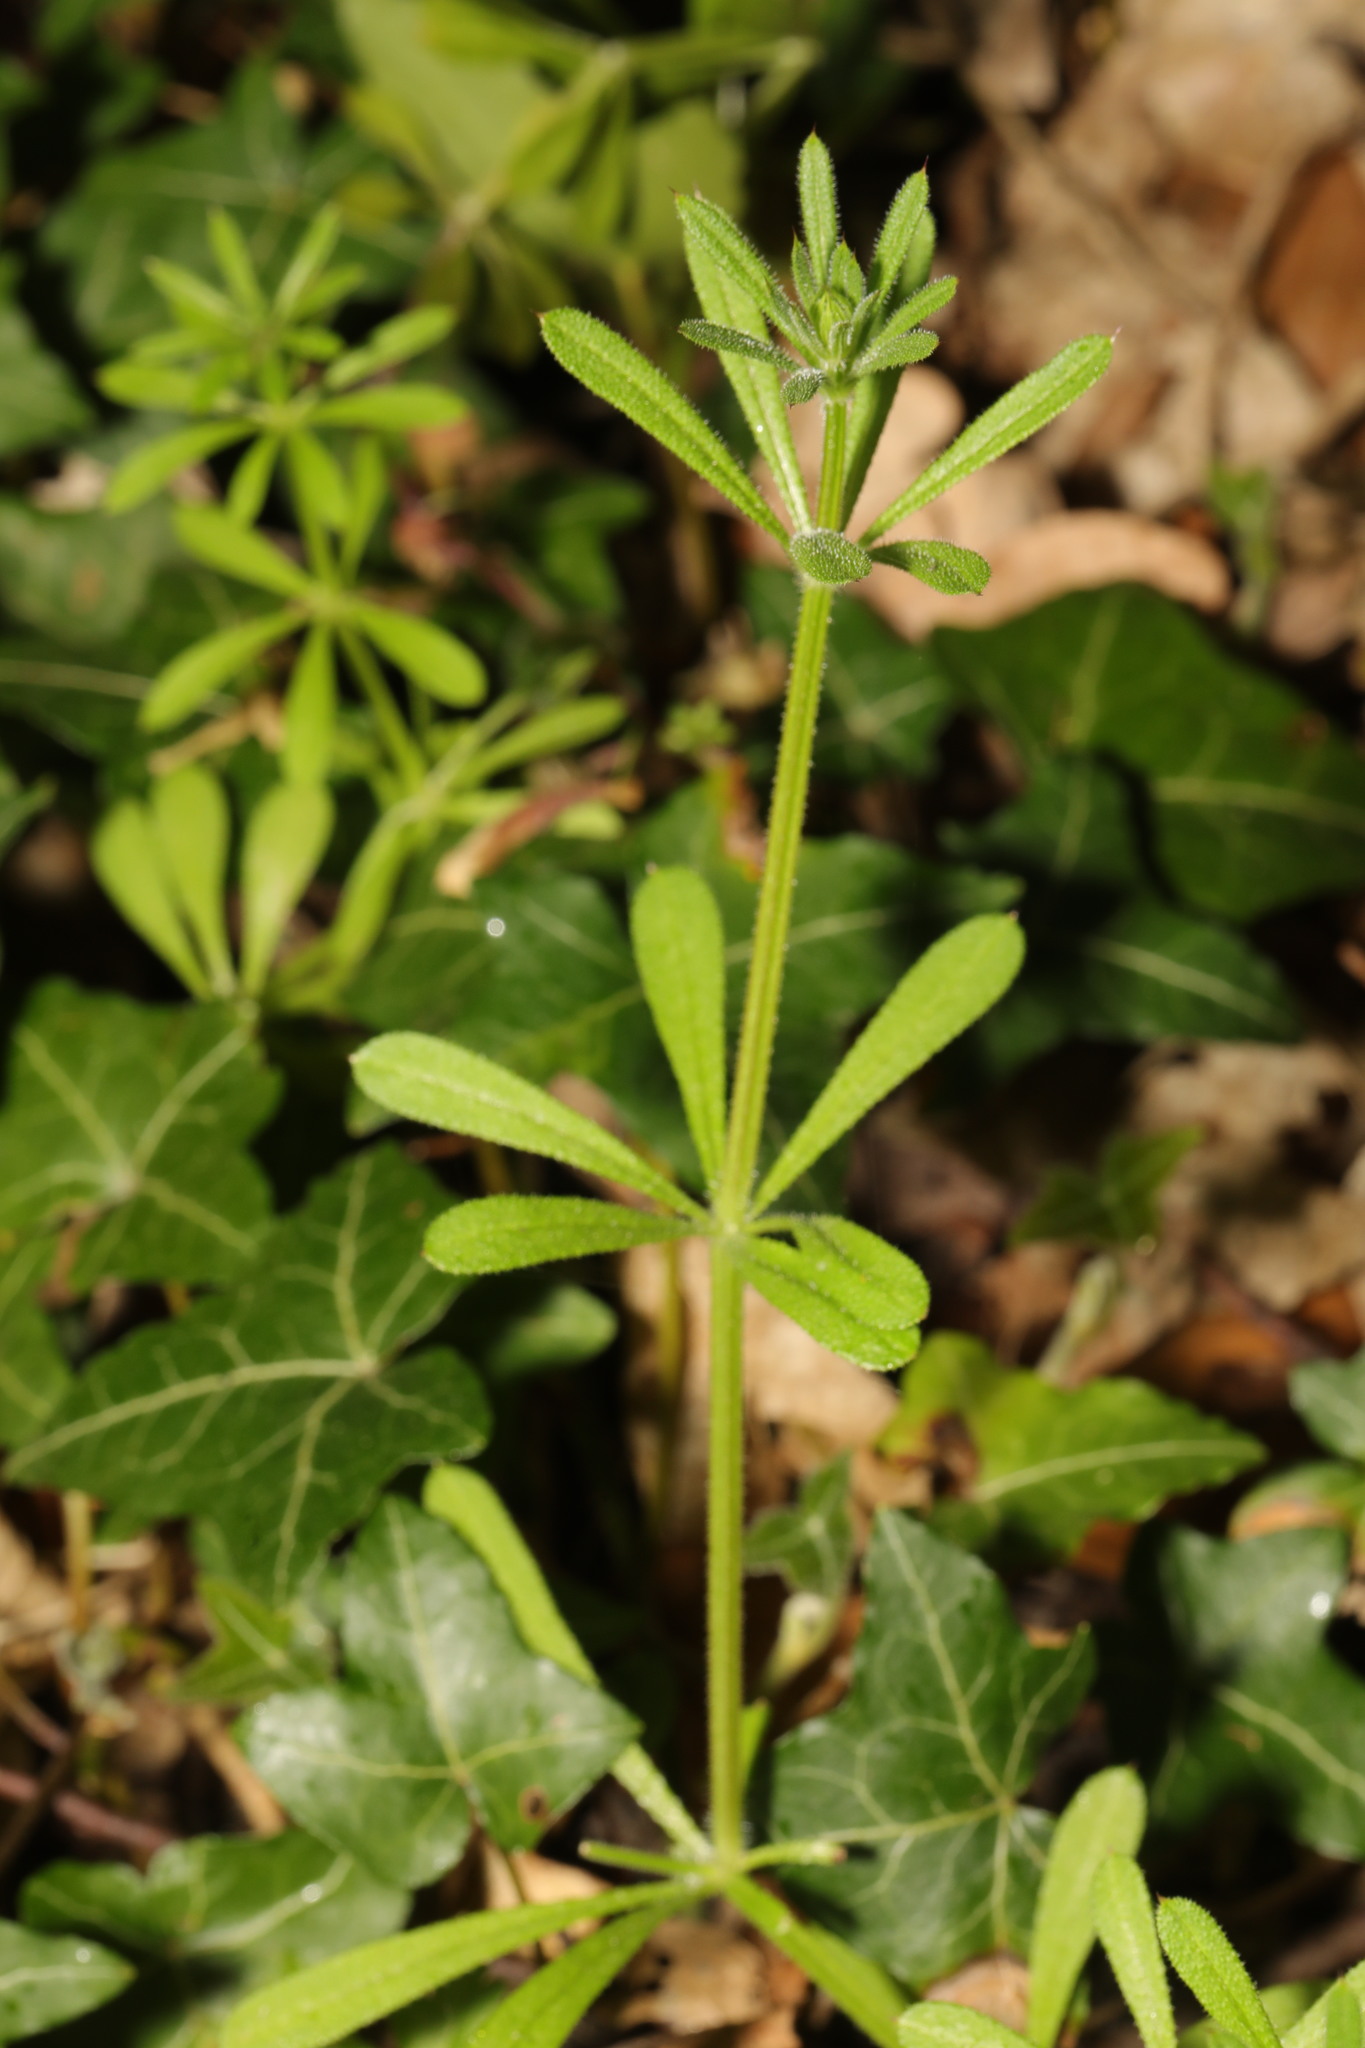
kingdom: Plantae
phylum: Tracheophyta
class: Magnoliopsida
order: Gentianales
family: Rubiaceae
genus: Galium
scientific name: Galium aparine
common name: Cleavers
